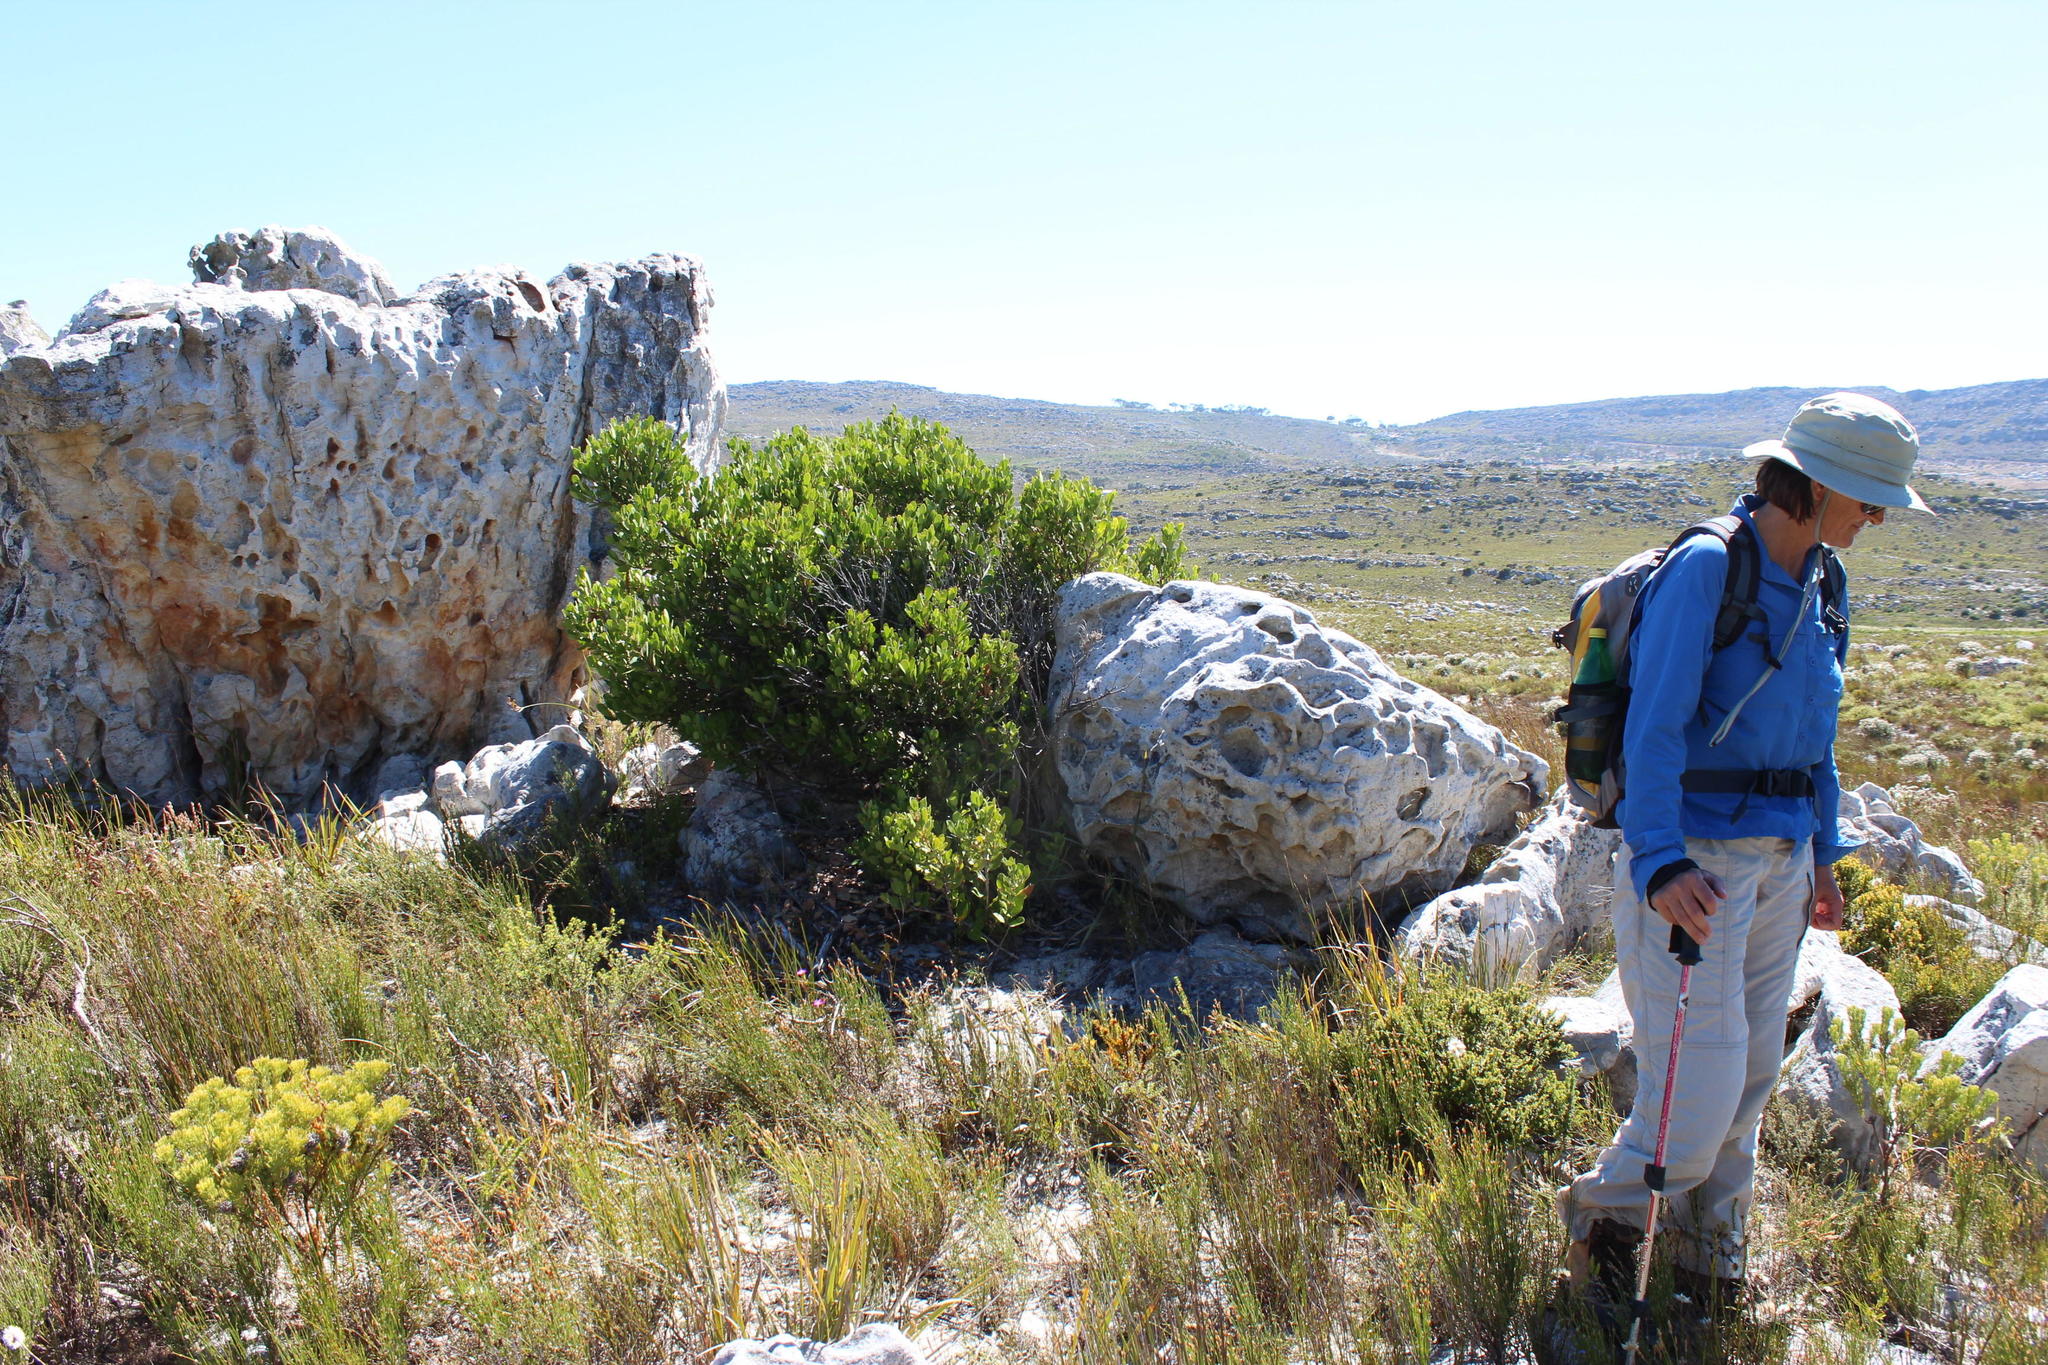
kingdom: Plantae
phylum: Tracheophyta
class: Magnoliopsida
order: Celastrales
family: Celastraceae
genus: Pterocelastrus
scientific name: Pterocelastrus tricuspidatus
